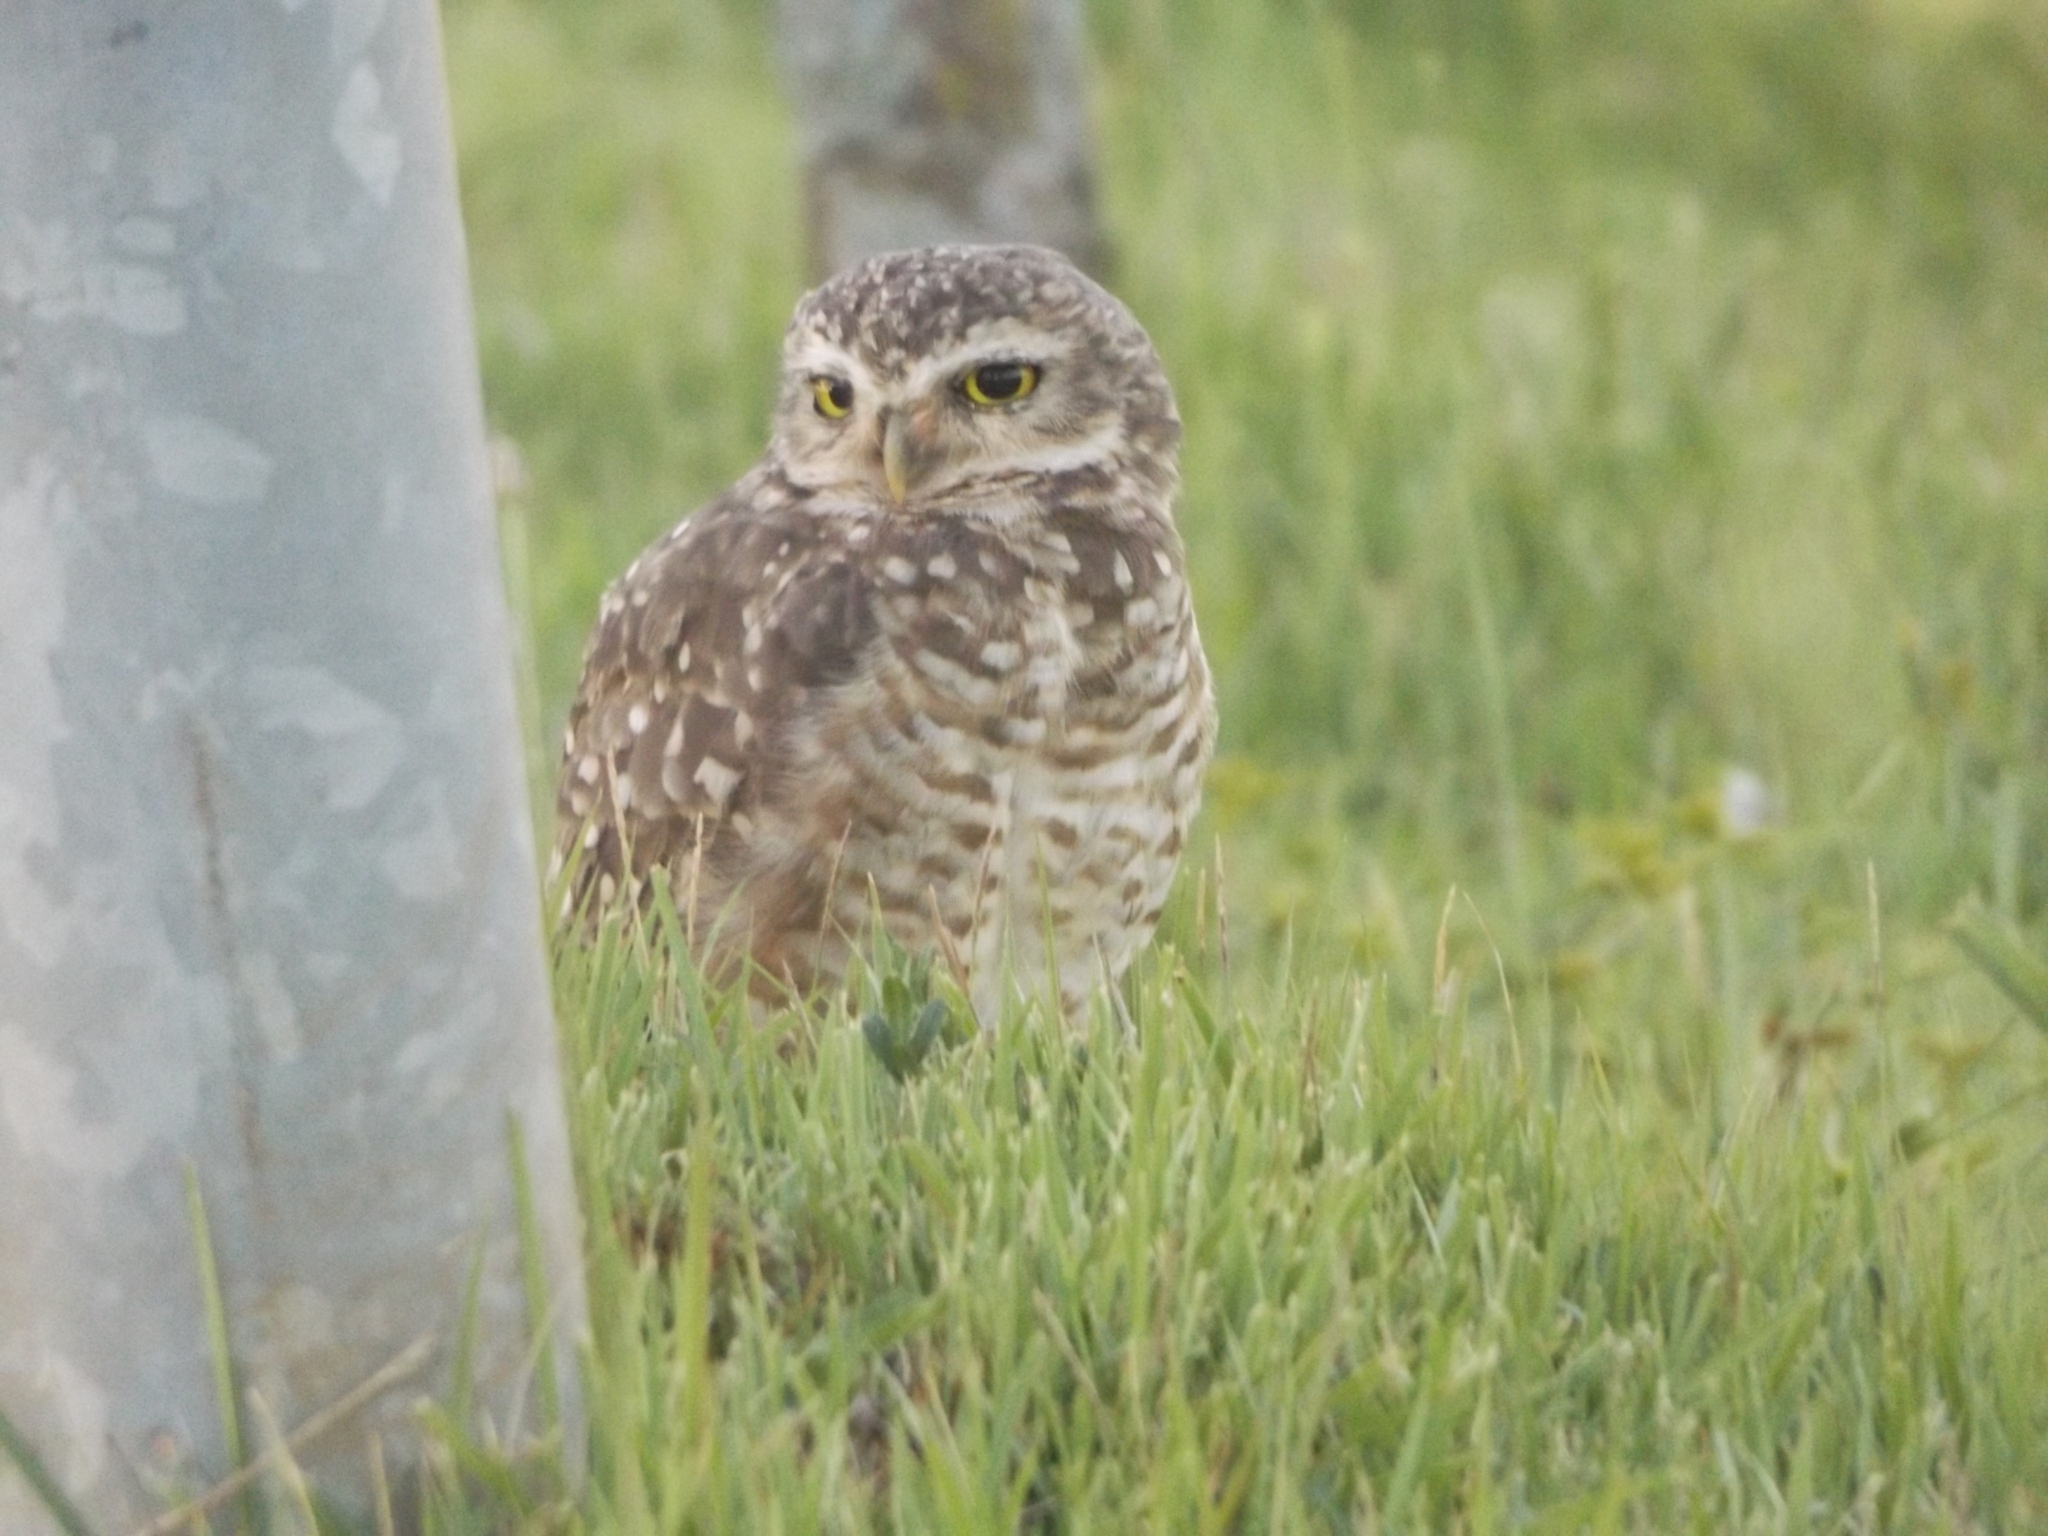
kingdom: Animalia
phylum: Chordata
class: Aves
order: Strigiformes
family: Strigidae
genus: Athene
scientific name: Athene cunicularia
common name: Burrowing owl
